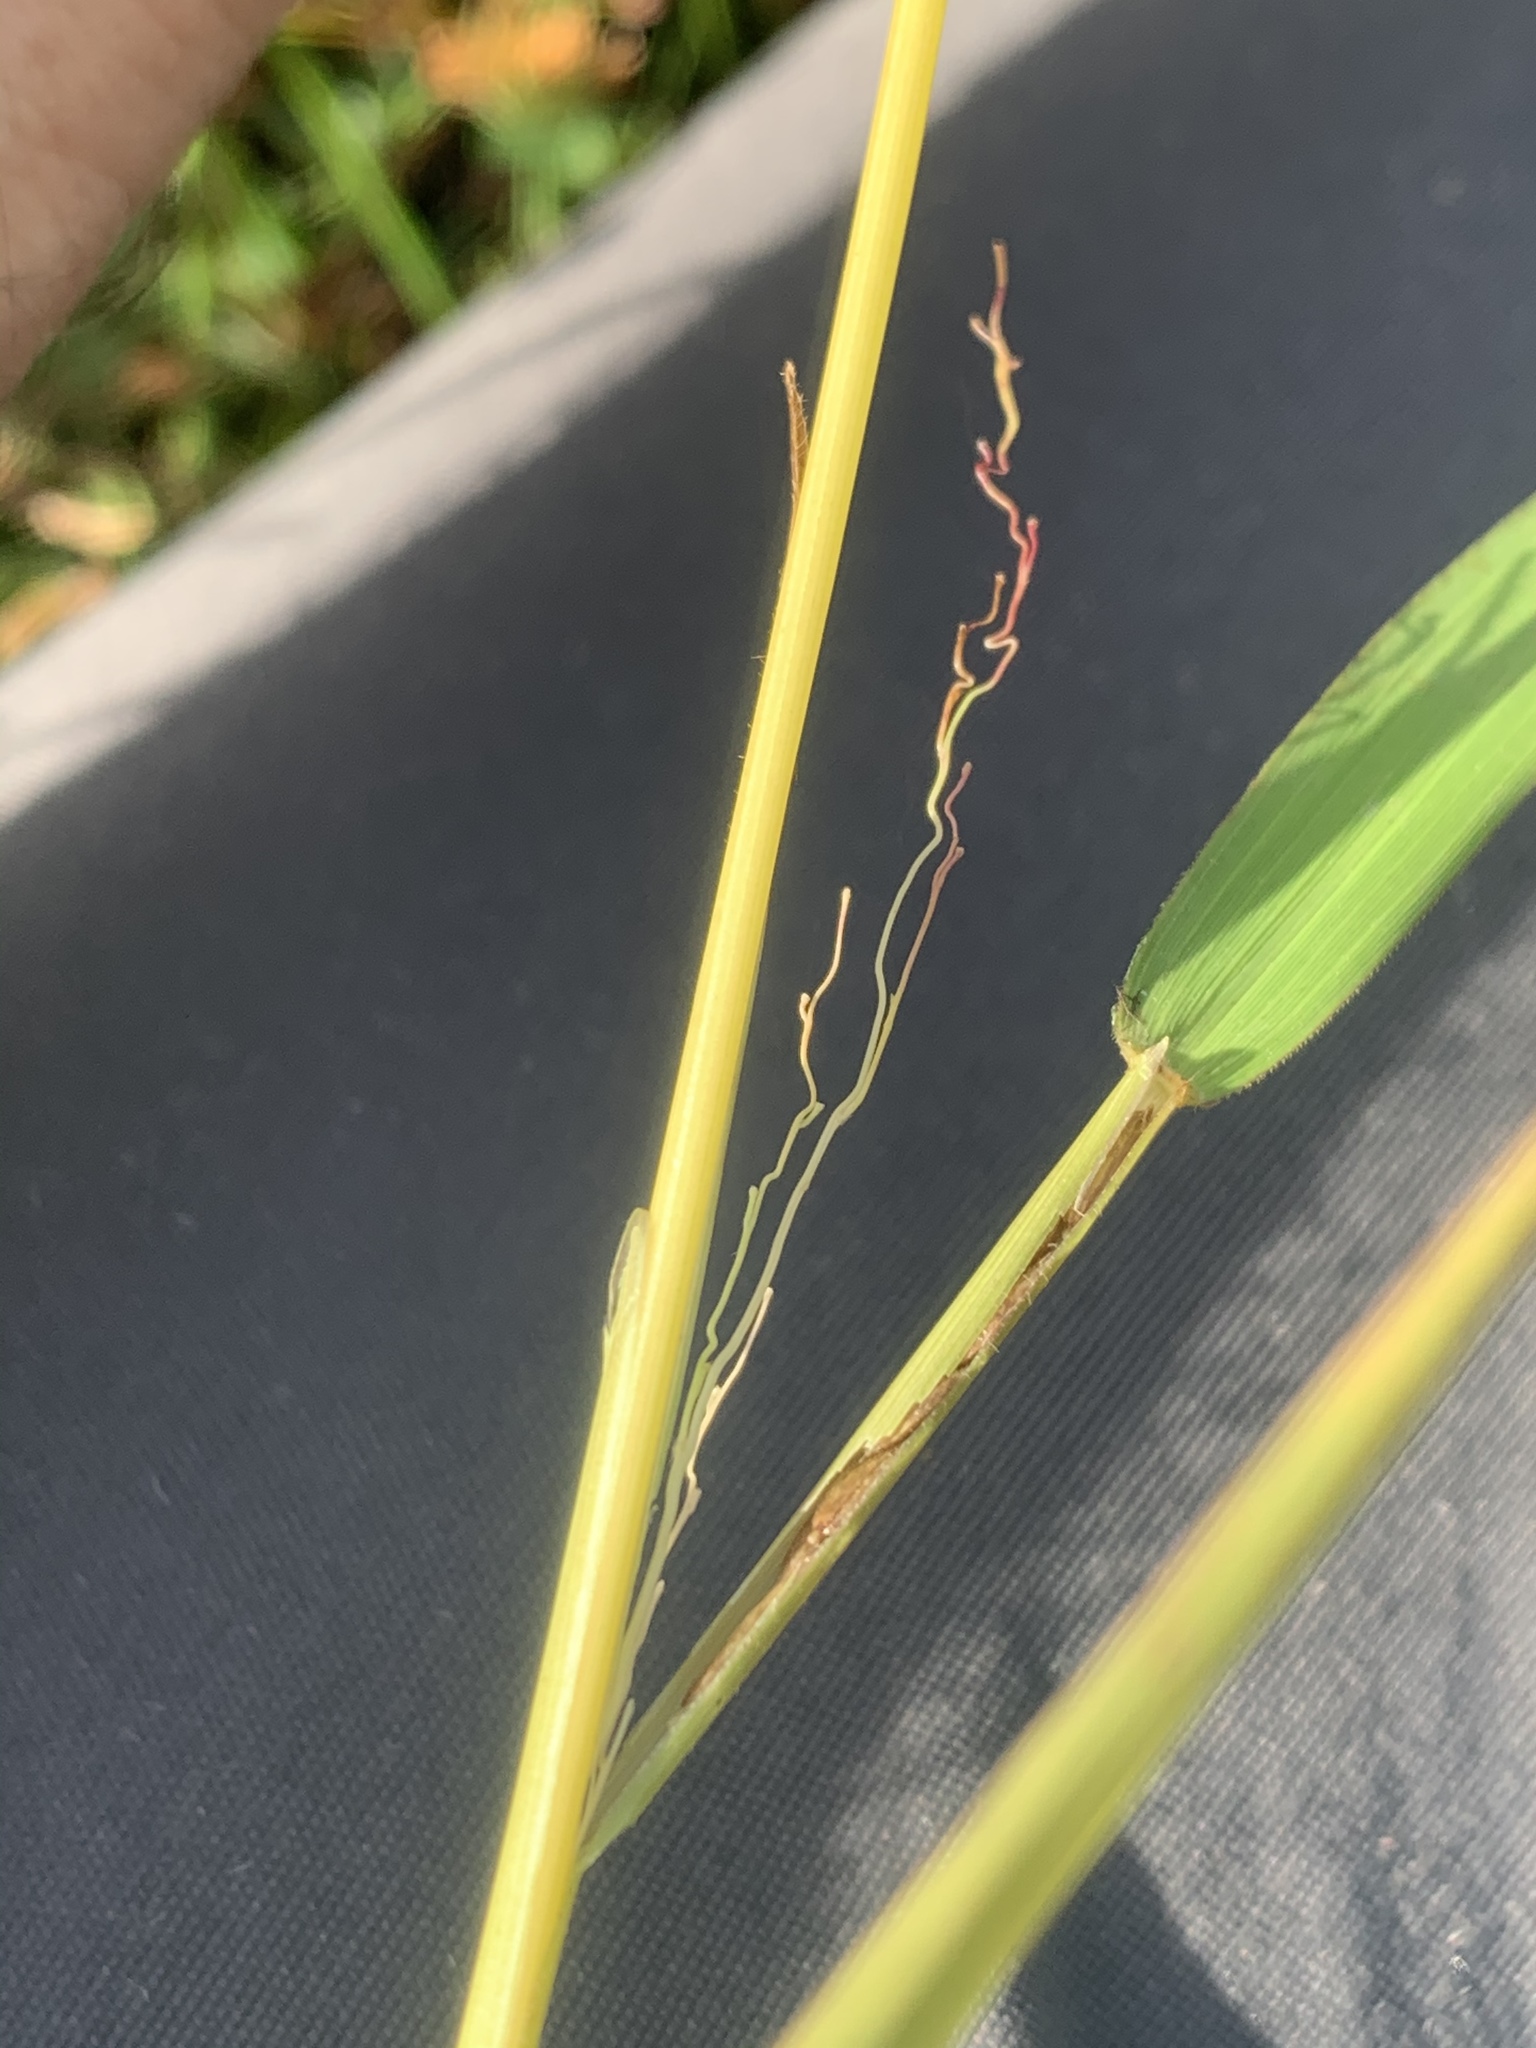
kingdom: Plantae
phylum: Tracheophyta
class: Liliopsida
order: Poales
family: Poaceae
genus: Leersia
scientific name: Leersia oryzoides
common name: Cut-grass
